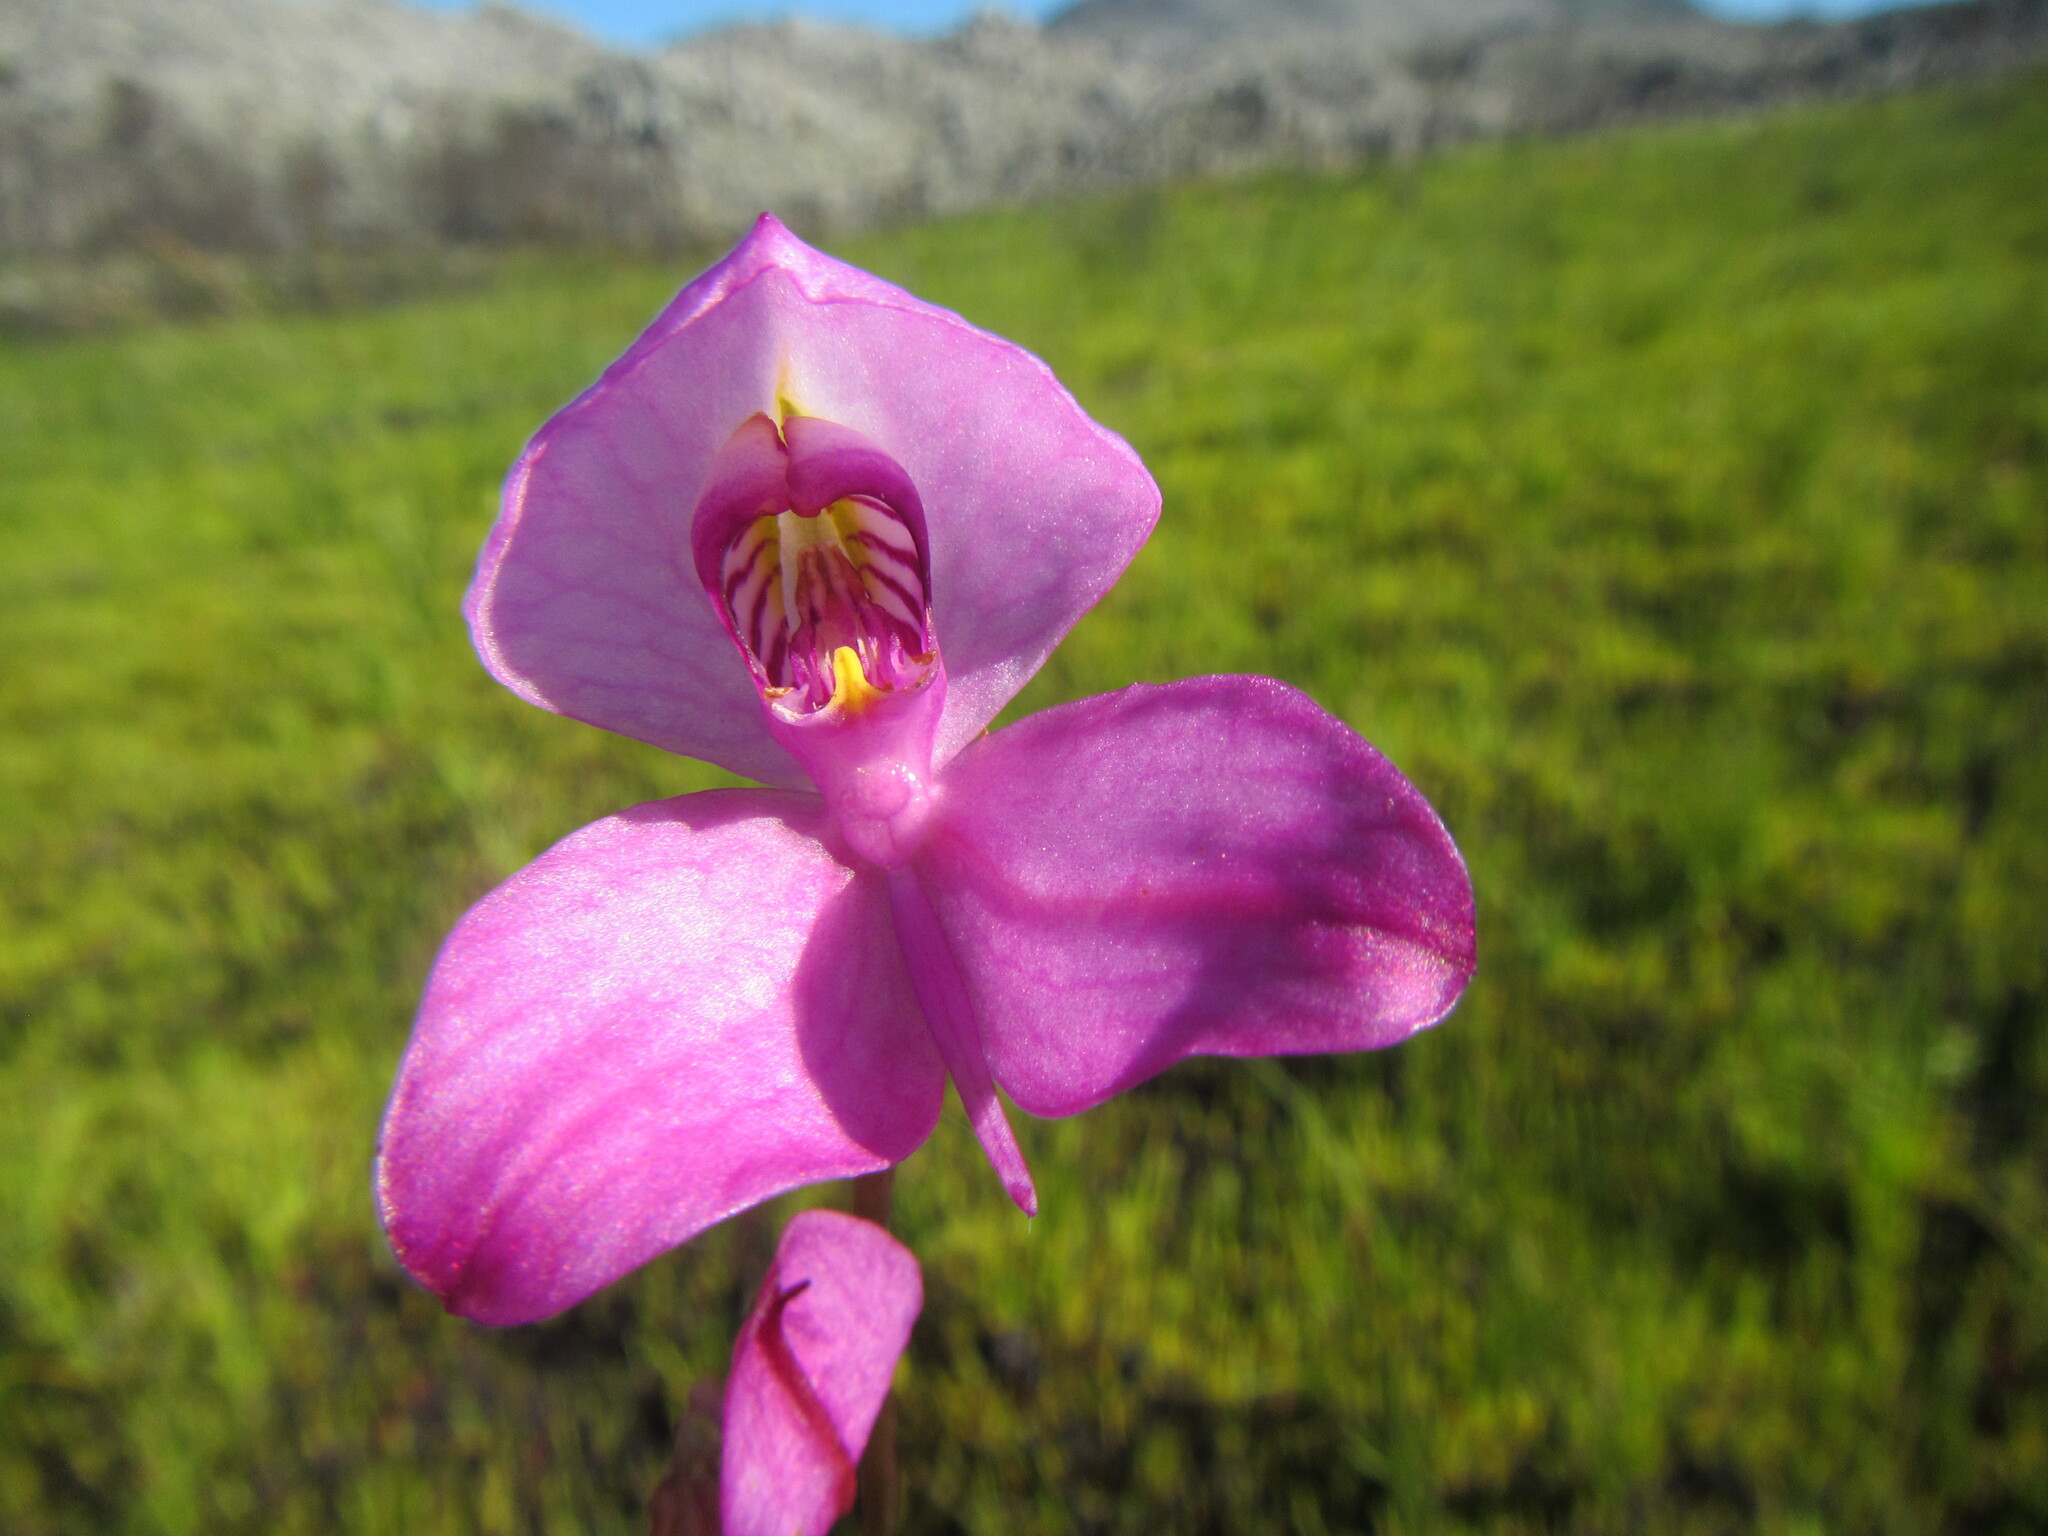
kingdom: Plantae
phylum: Tracheophyta
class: Liliopsida
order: Asparagales
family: Orchidaceae
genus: Disa
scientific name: Disa racemosa
